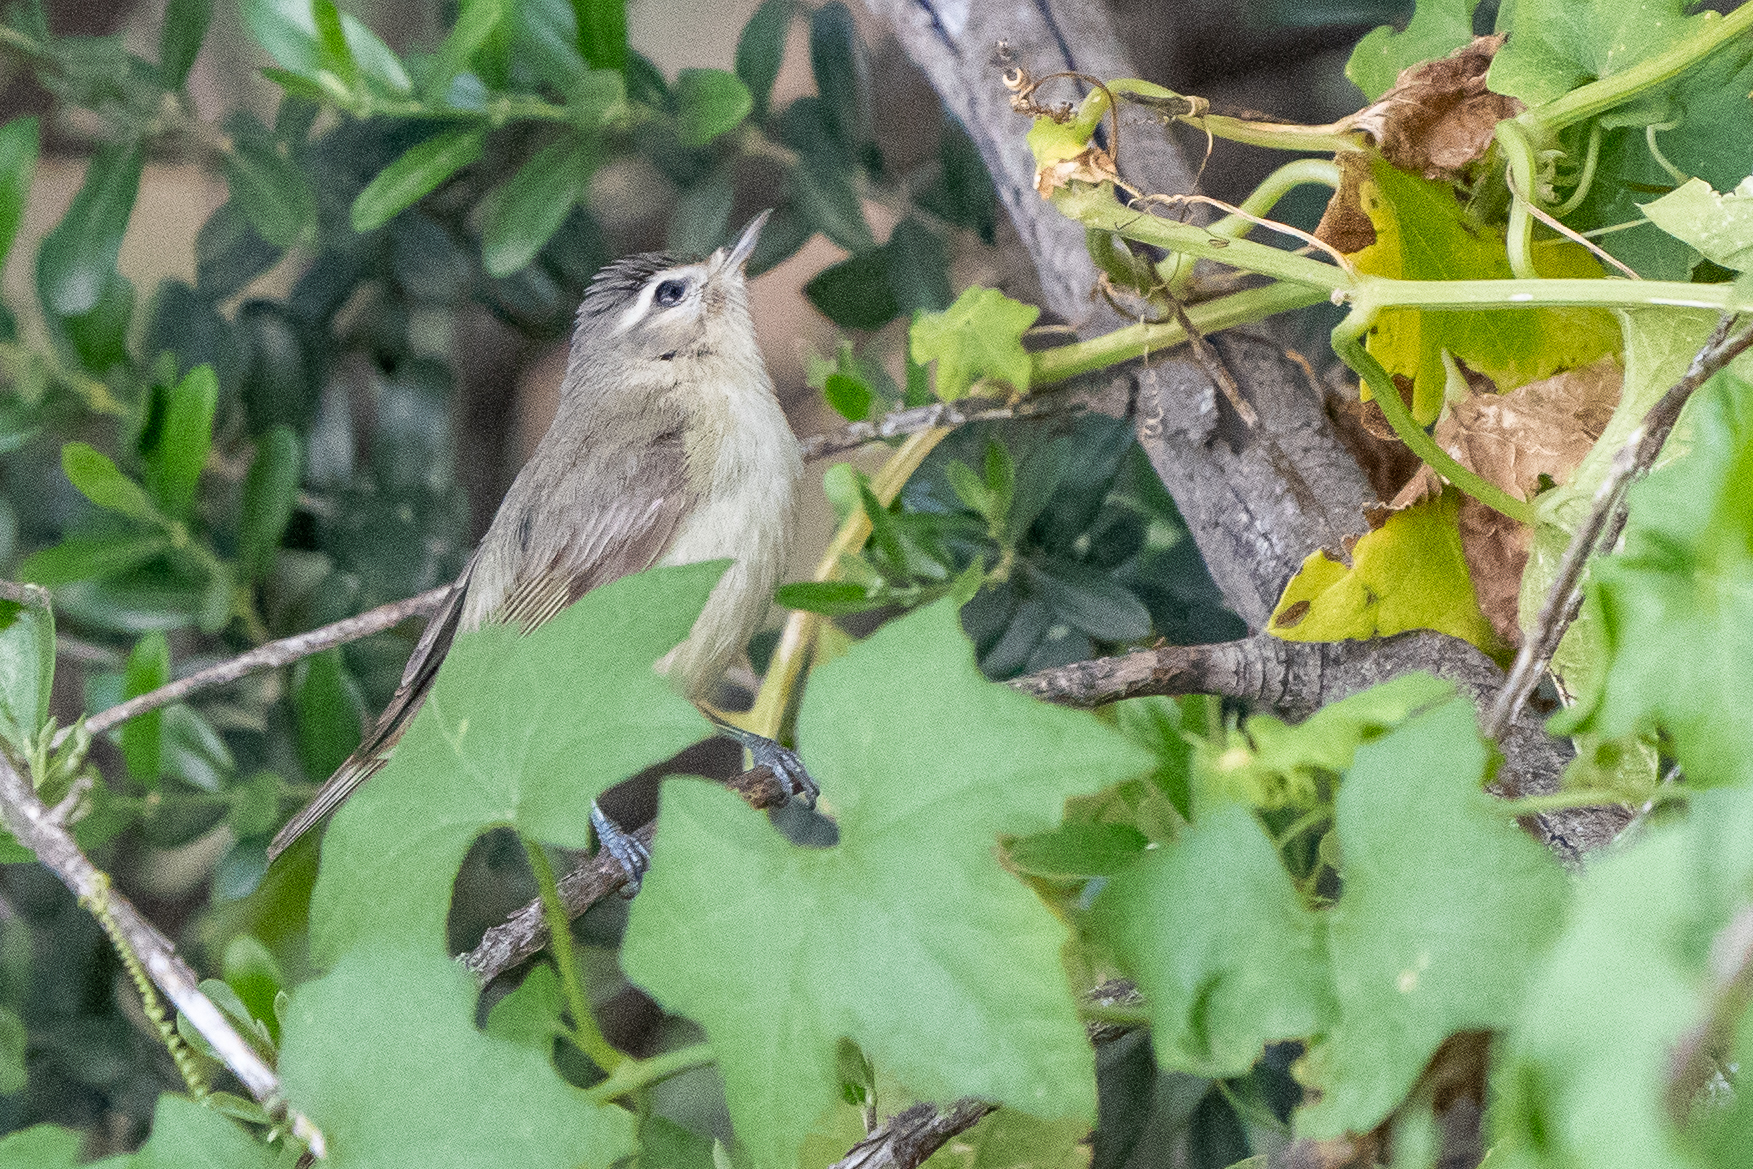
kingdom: Animalia
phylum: Chordata
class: Aves
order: Passeriformes
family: Vireonidae
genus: Vireo
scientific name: Vireo gilvus
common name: Warbling vireo
